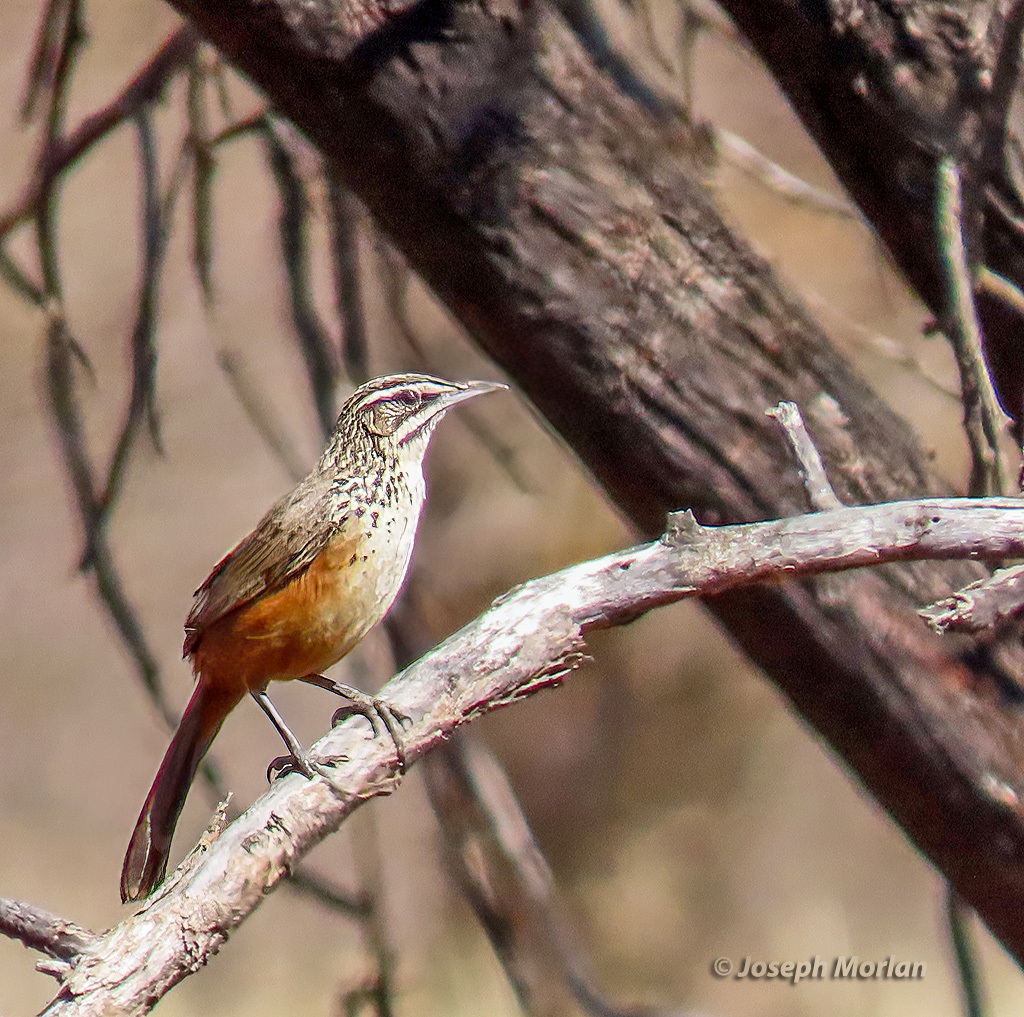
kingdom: Animalia
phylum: Chordata
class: Aves
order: Passeriformes
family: Macrosphenidae
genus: Achaetops
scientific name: Achaetops pycnopygius
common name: Rockrunner
